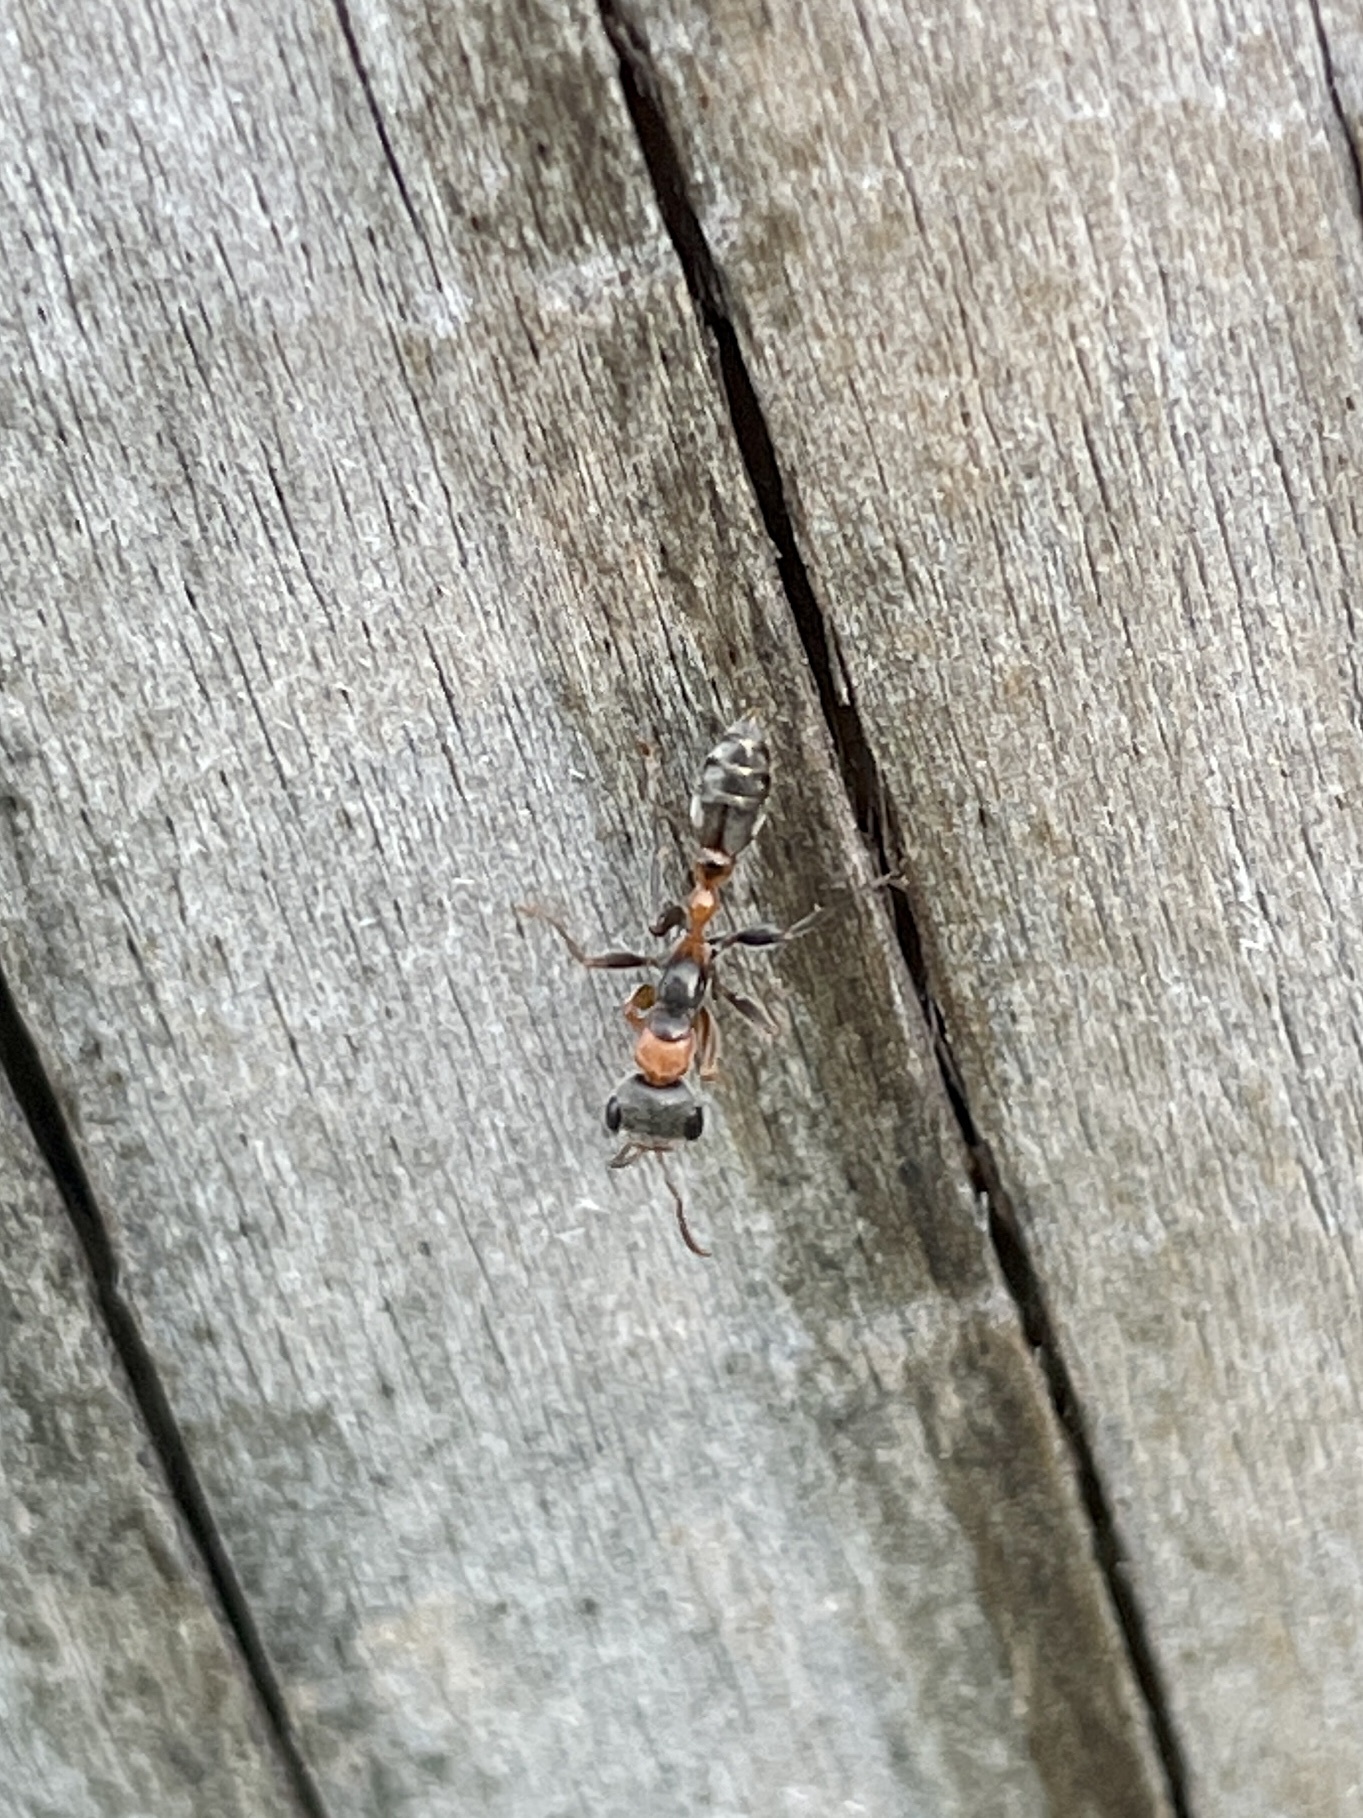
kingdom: Animalia
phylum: Arthropoda
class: Insecta
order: Hymenoptera
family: Formicidae
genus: Pseudomyrmex
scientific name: Pseudomyrmex gracilis
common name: Graceful twig ant
